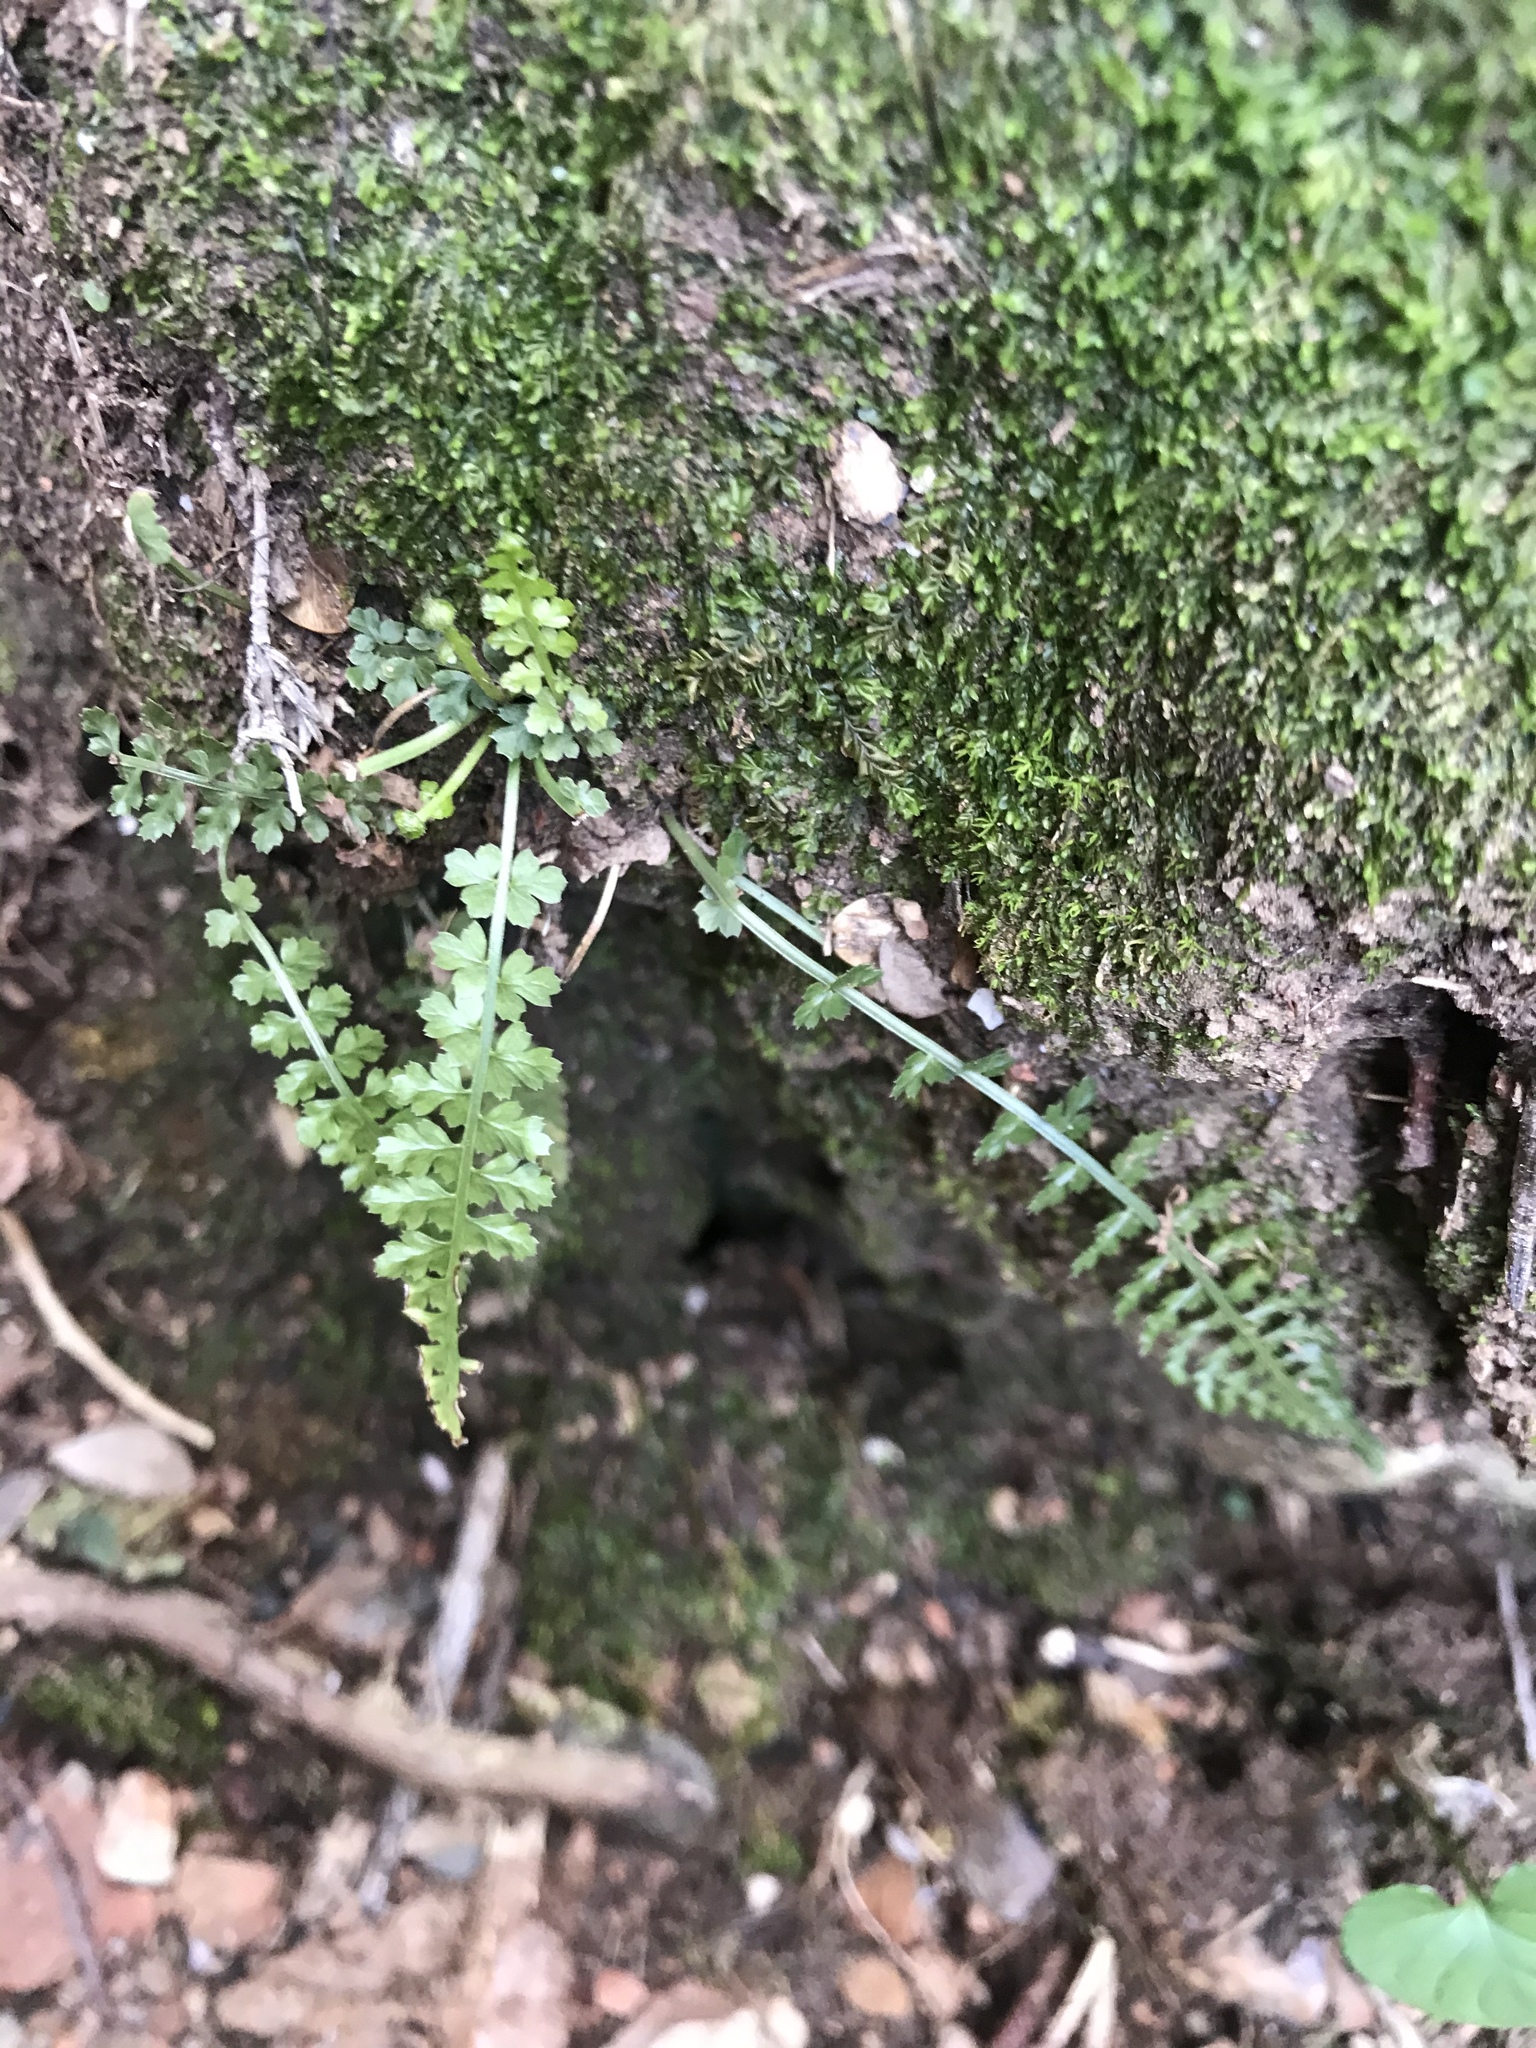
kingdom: Plantae
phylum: Tracheophyta
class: Polypodiopsida
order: Polypodiales
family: Aspleniaceae
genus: Asplenium
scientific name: Asplenium fontanum
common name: Fountain spleenwort
